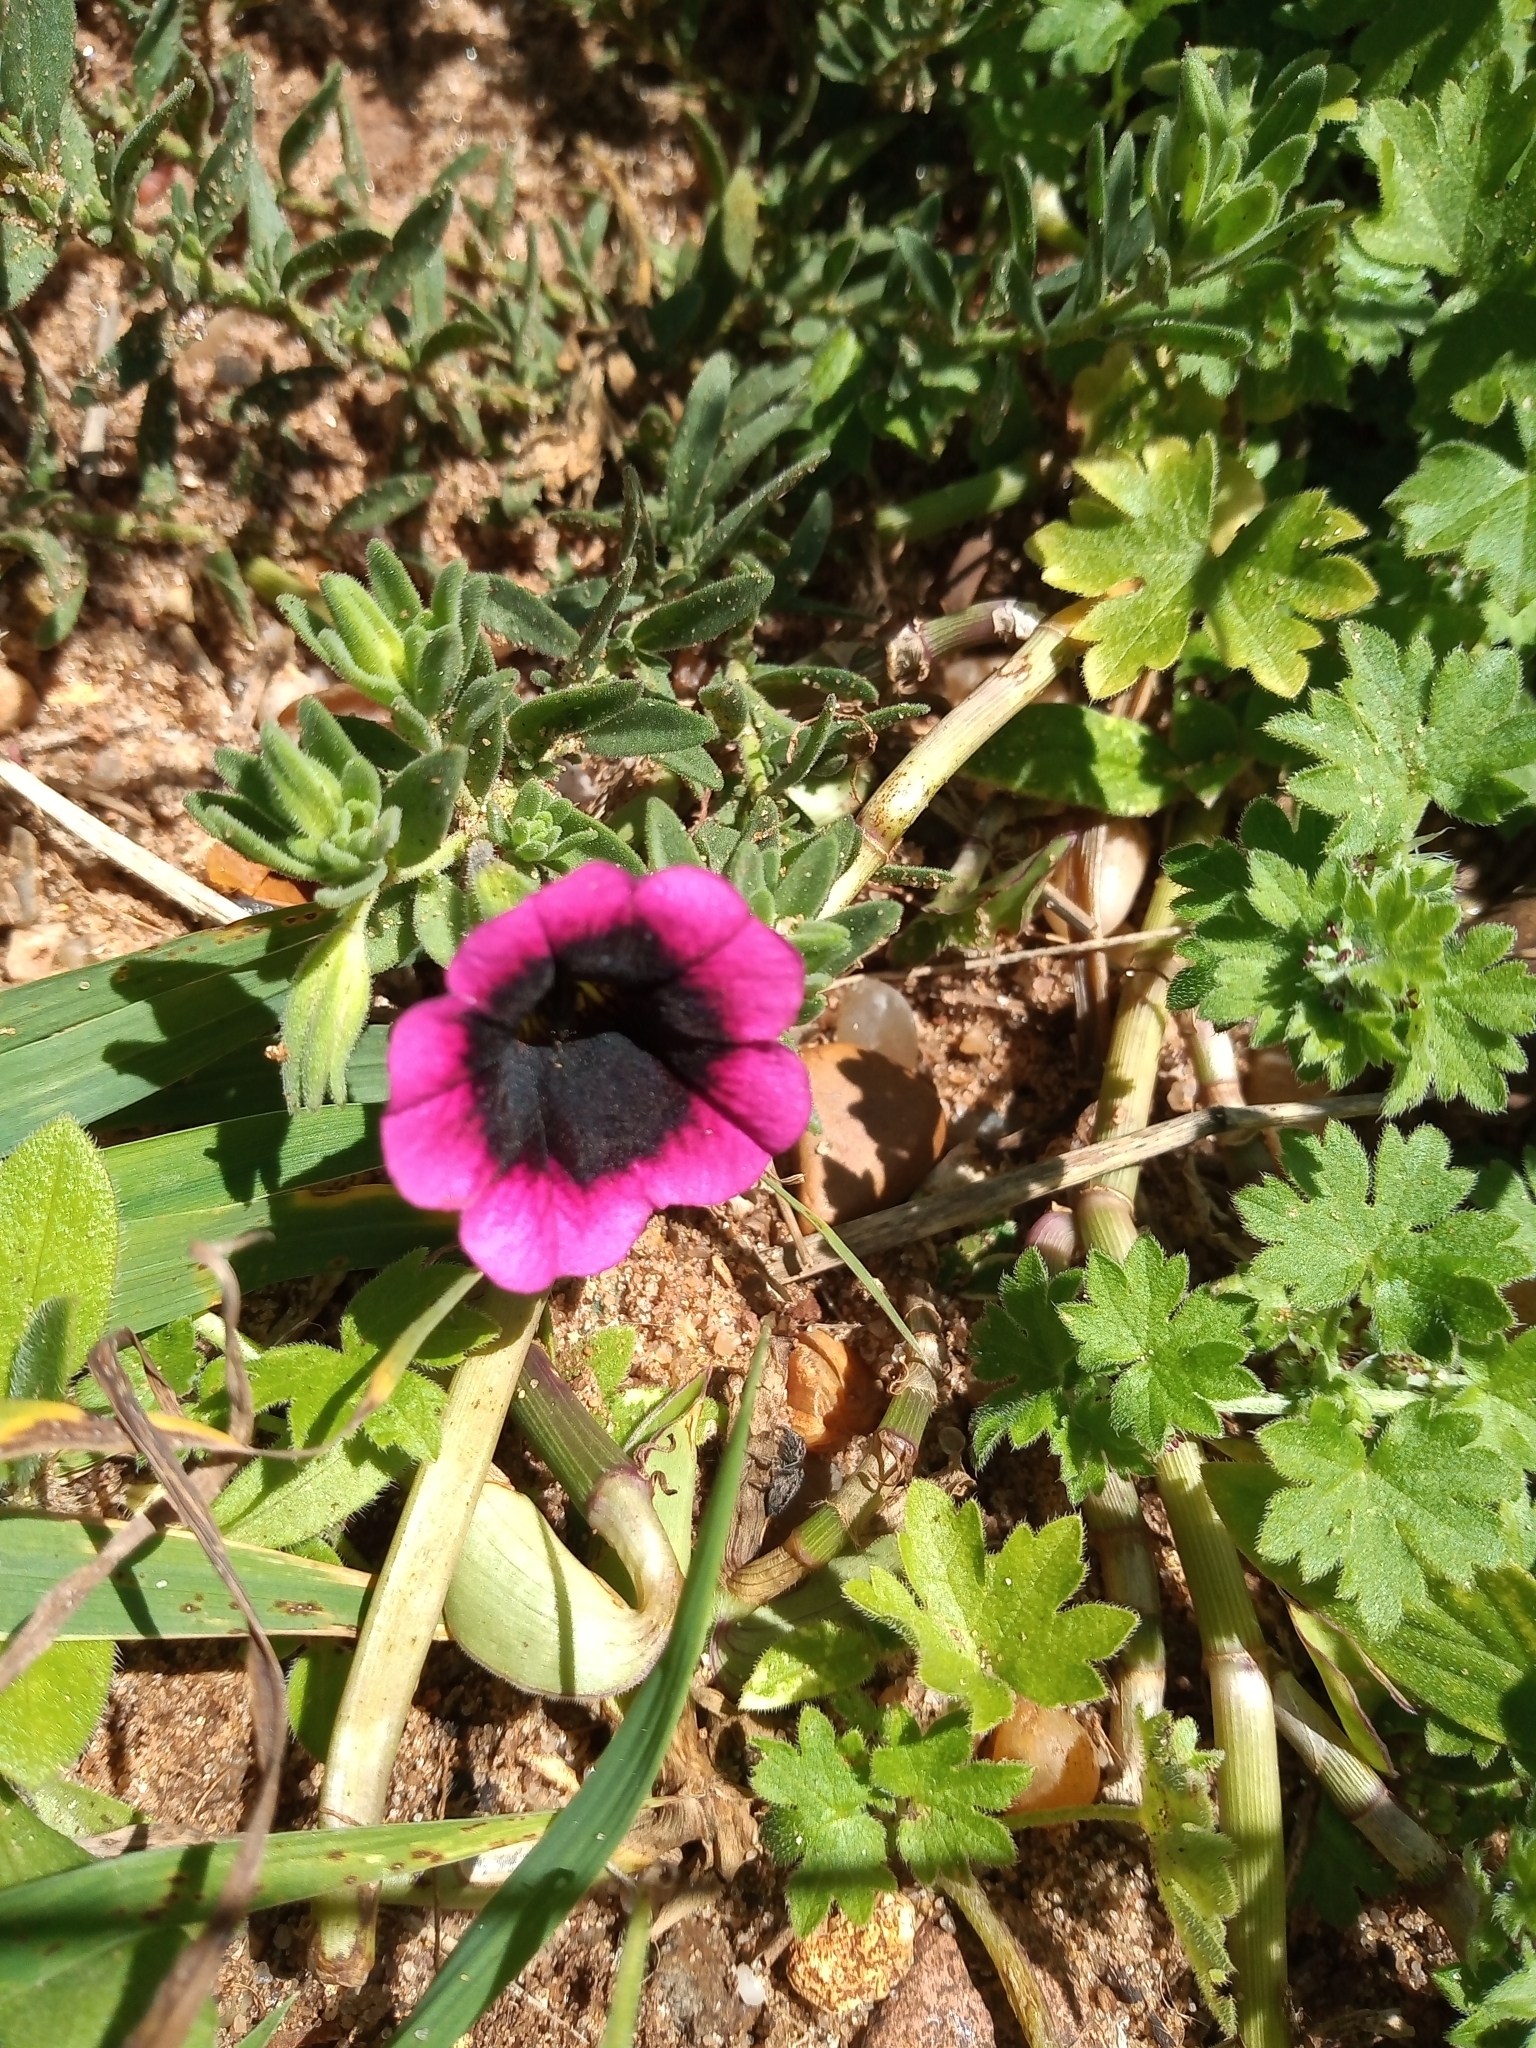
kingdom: Plantae
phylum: Tracheophyta
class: Magnoliopsida
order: Solanales
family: Solanaceae
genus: Calibrachoa
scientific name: Calibrachoa thymifolia
